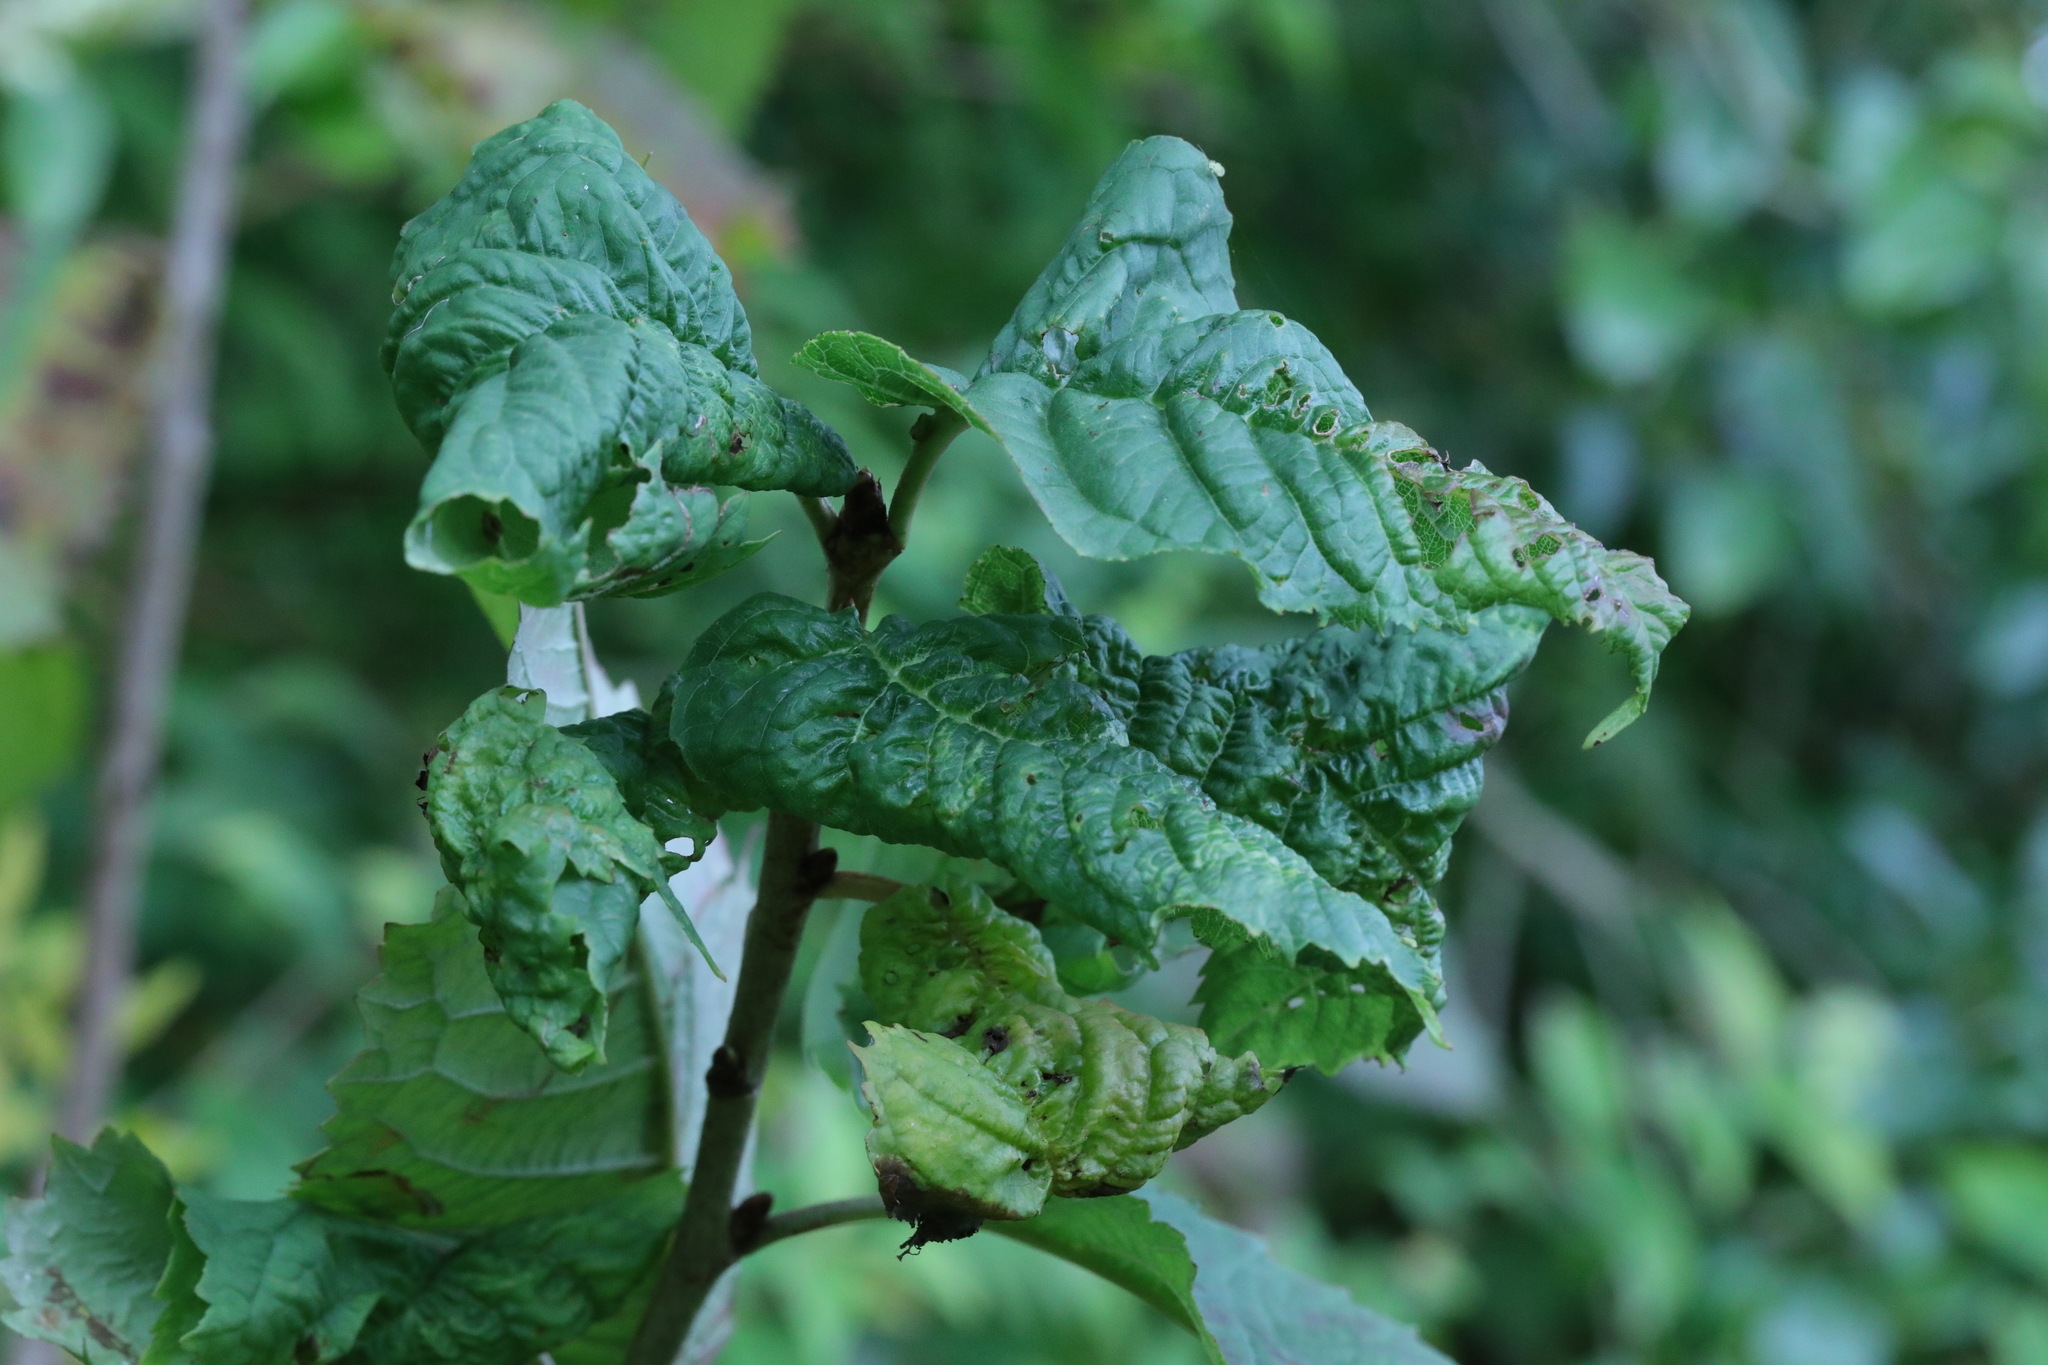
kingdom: Animalia
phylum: Arthropoda
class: Insecta
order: Hemiptera
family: Aphididae
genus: Myzus
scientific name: Myzus cerasi
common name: Black cherry aphid
